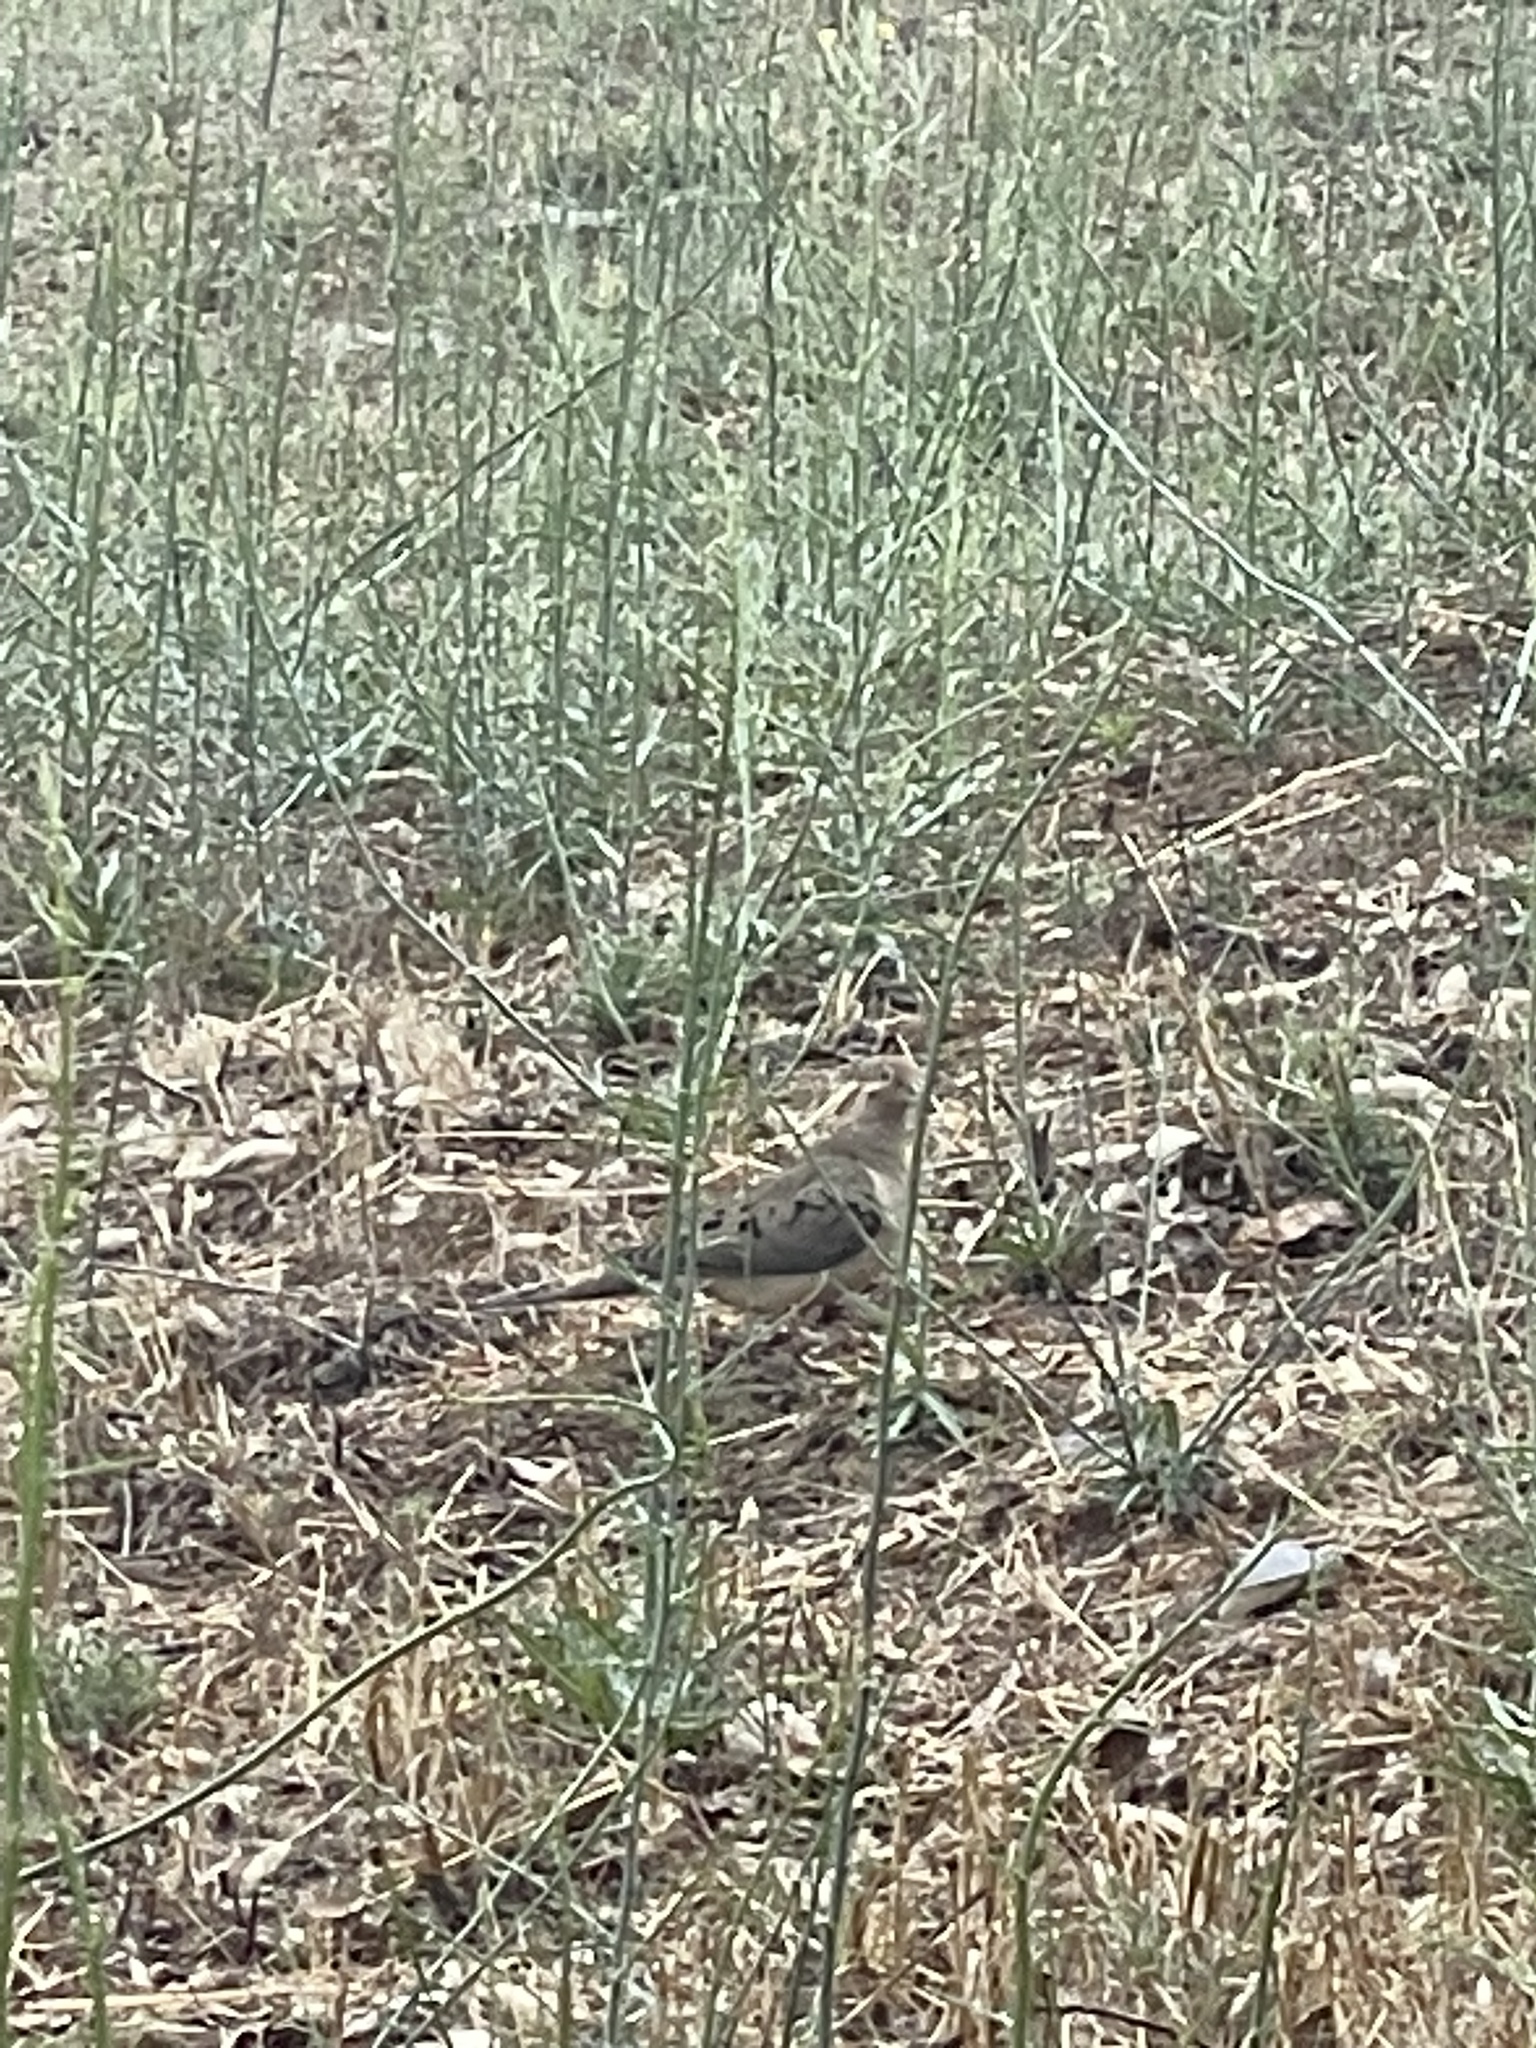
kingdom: Animalia
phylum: Chordata
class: Aves
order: Columbiformes
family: Columbidae
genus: Zenaida
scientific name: Zenaida macroura
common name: Mourning dove
